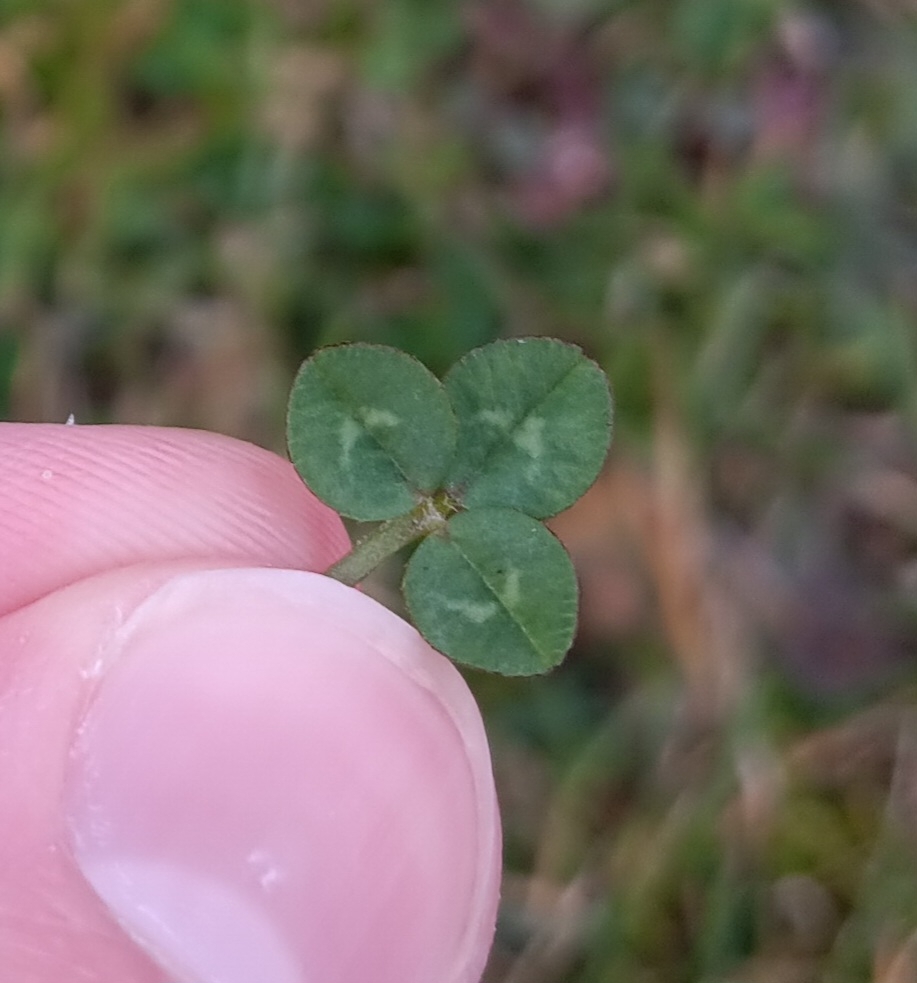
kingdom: Plantae
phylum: Tracheophyta
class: Magnoliopsida
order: Fabales
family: Fabaceae
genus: Trifolium
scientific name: Trifolium repens
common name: White clover
